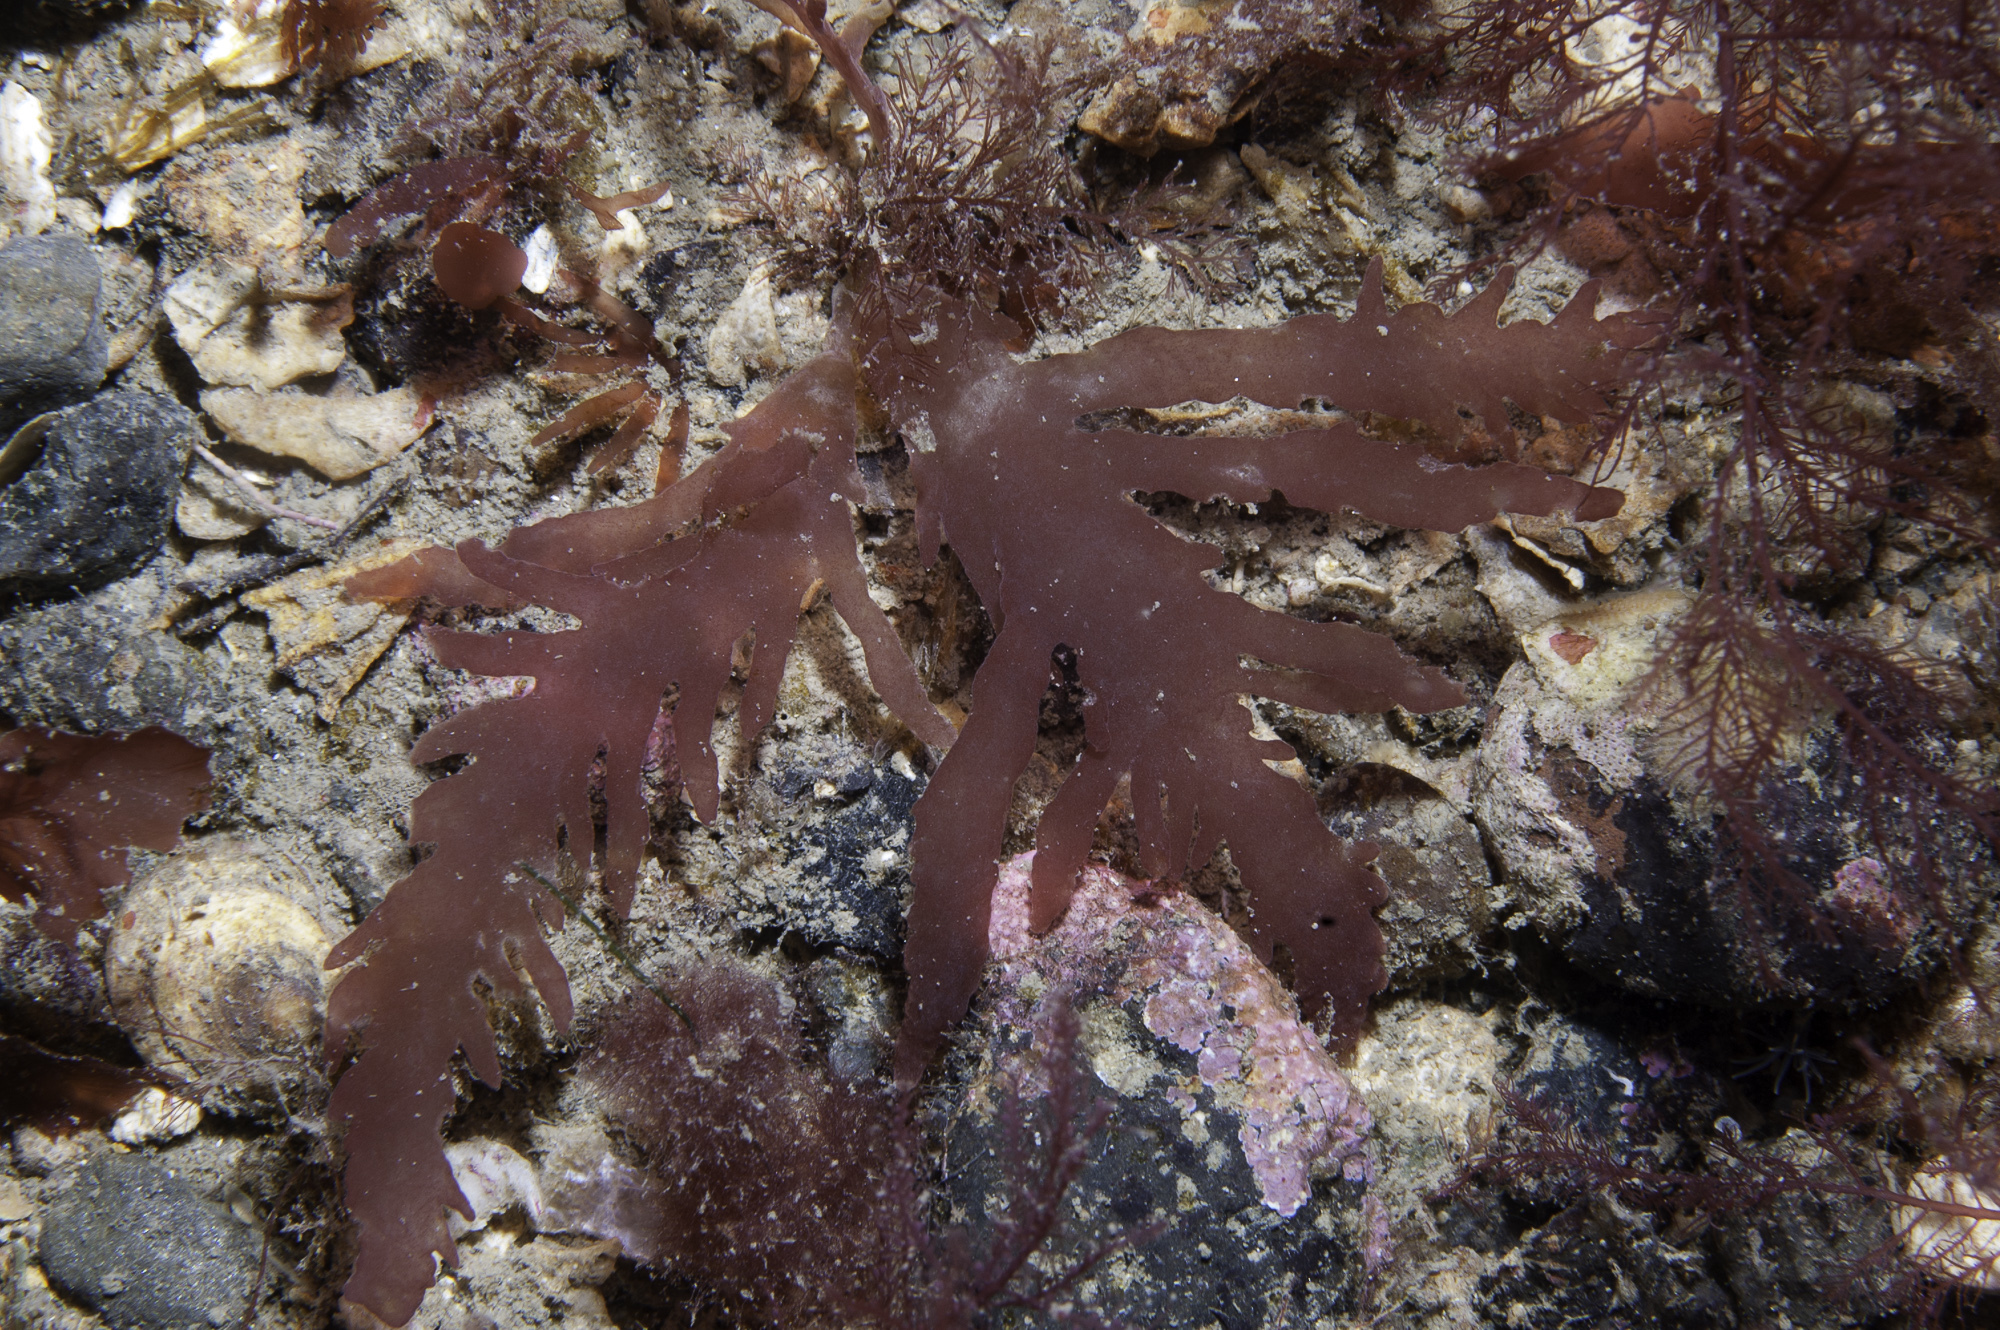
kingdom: Plantae
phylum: Rhodophyta
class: Florideophyceae
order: Gigartinales
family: Calosiphoniaceae
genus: Schmitzia
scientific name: Schmitzia hiscockiana
